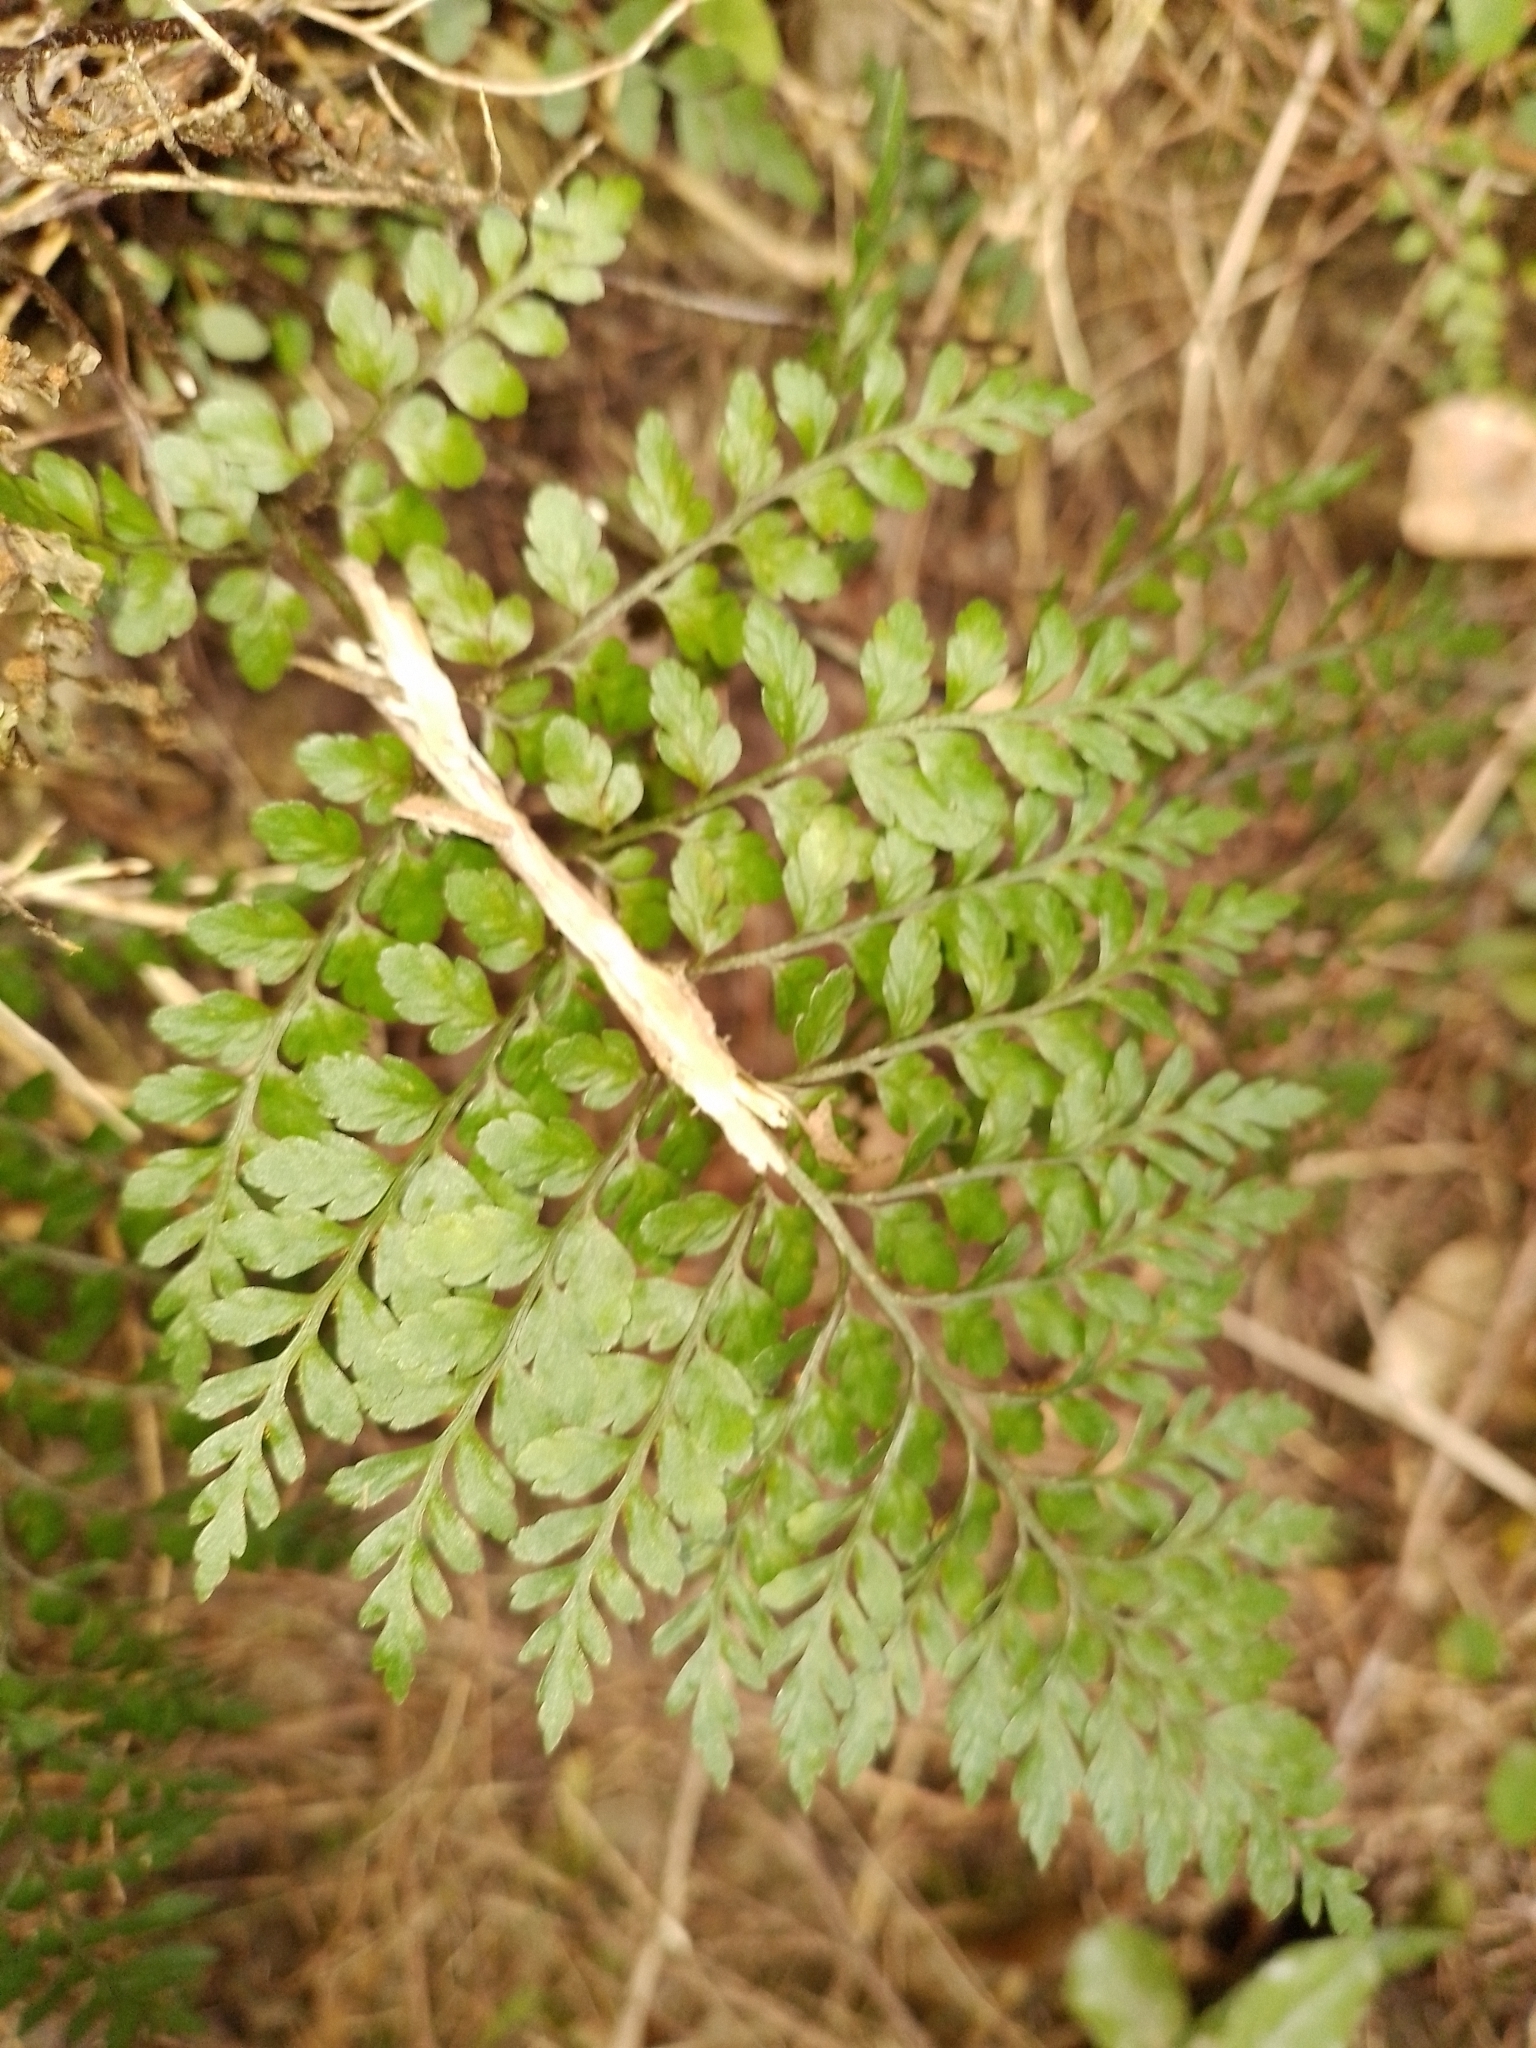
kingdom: Plantae
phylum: Tracheophyta
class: Polypodiopsida
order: Polypodiales
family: Aspleniaceae
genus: Asplenium
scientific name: Asplenium hookerianum
